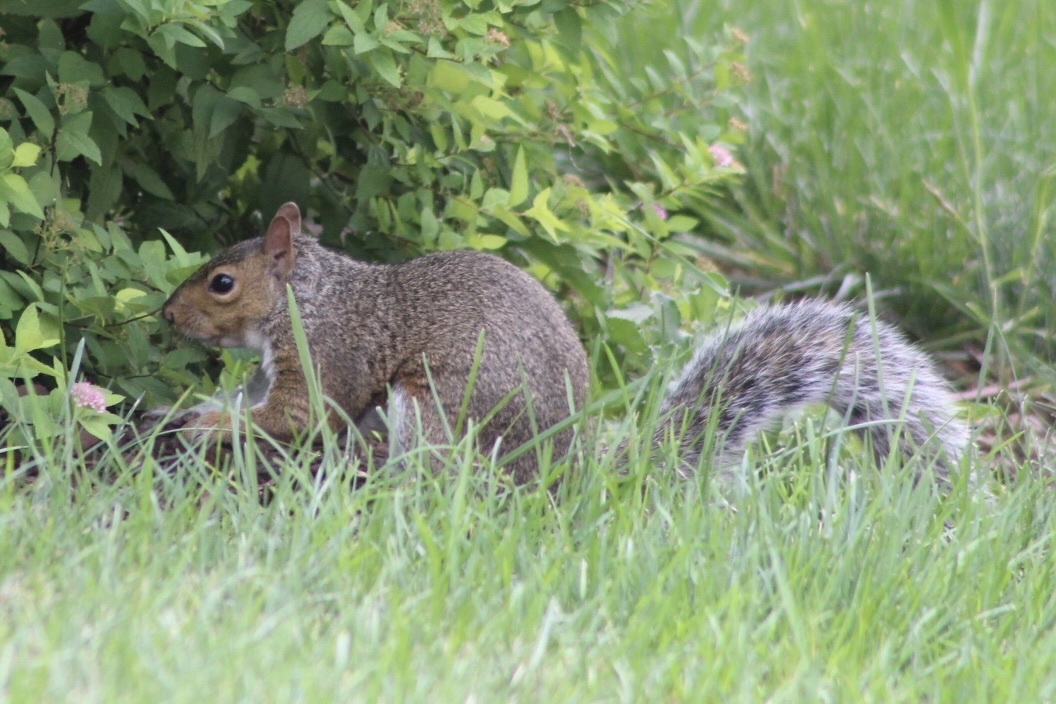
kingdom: Animalia
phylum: Chordata
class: Mammalia
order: Rodentia
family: Sciuridae
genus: Sciurus
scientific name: Sciurus carolinensis
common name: Eastern gray squirrel
